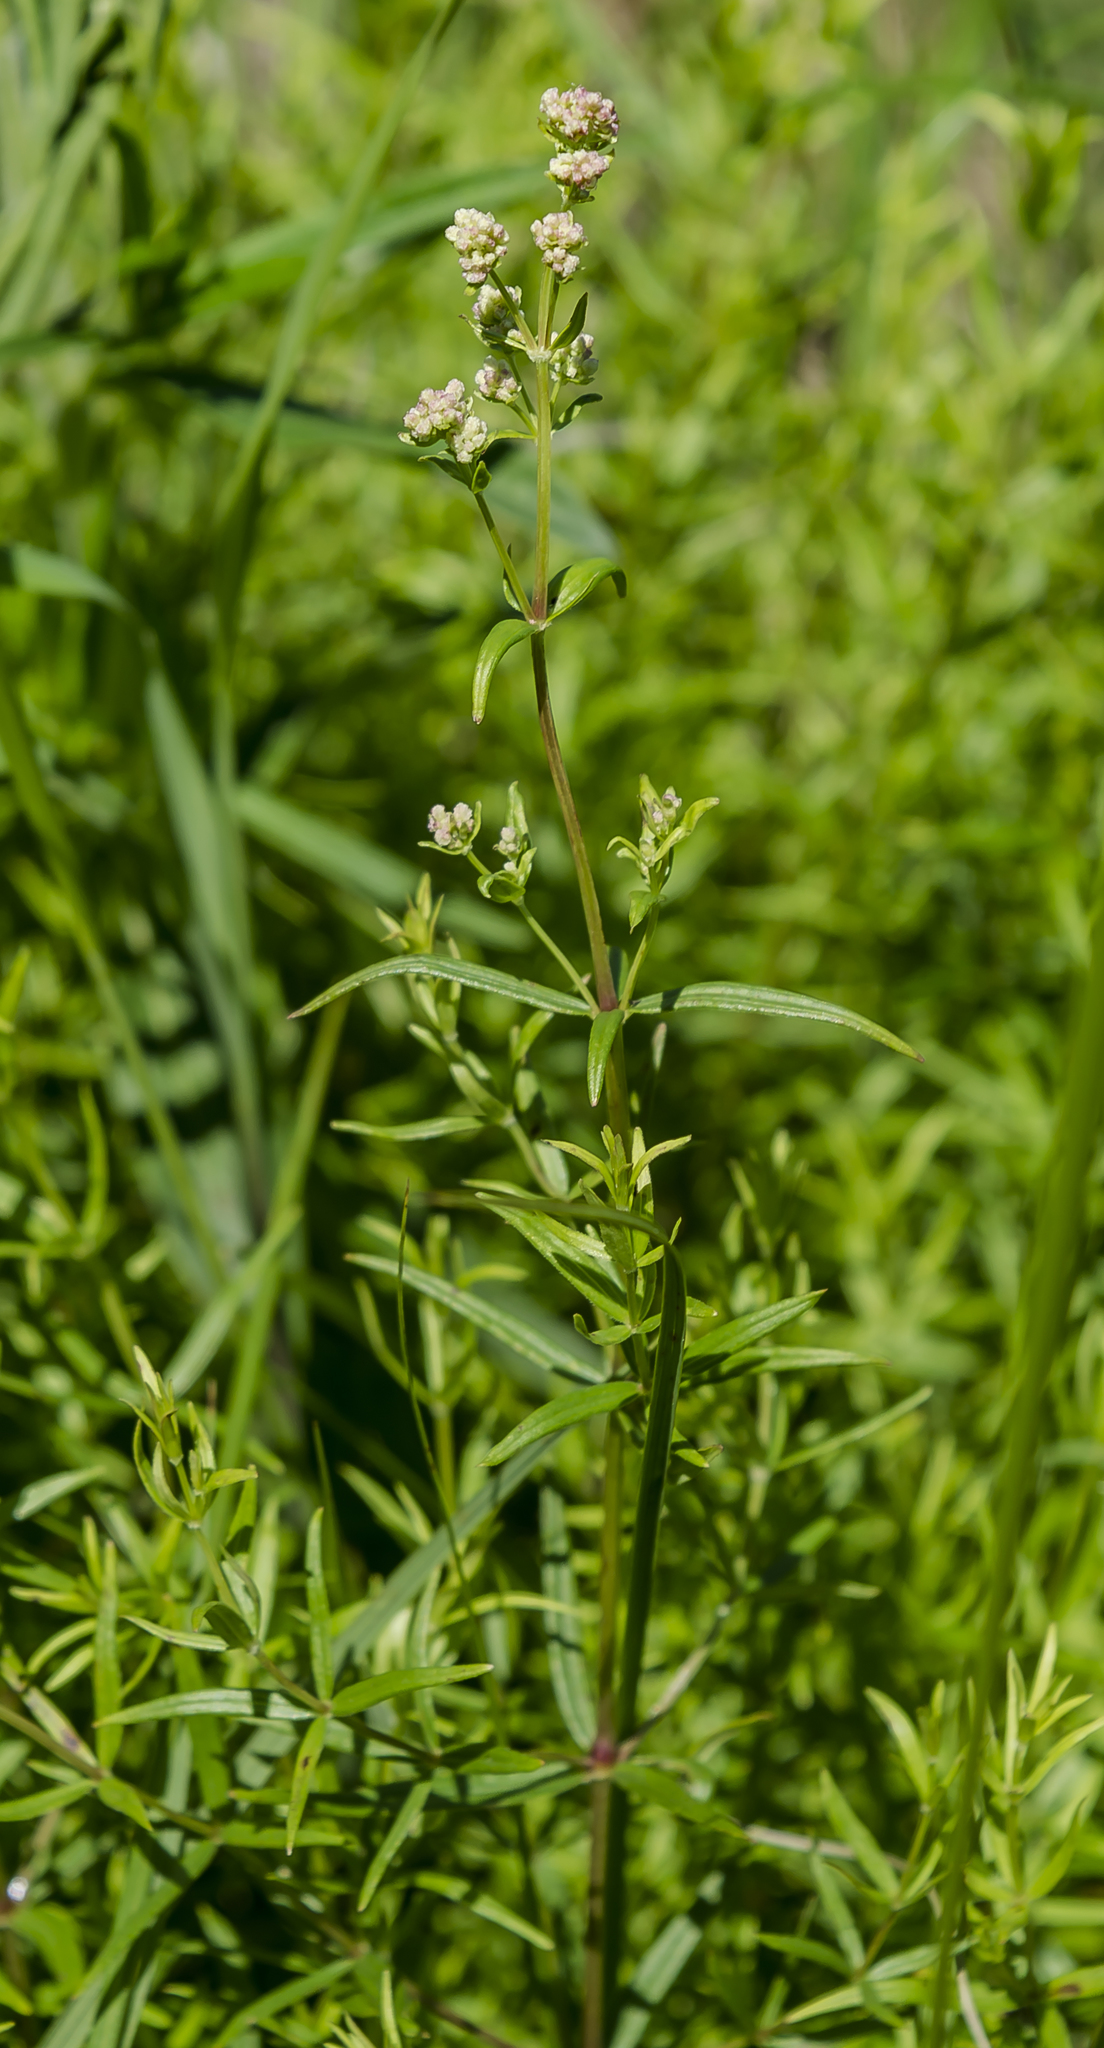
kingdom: Plantae
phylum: Tracheophyta
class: Magnoliopsida
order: Gentianales
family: Rubiaceae
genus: Galium
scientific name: Galium boreale
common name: Northern bedstraw
